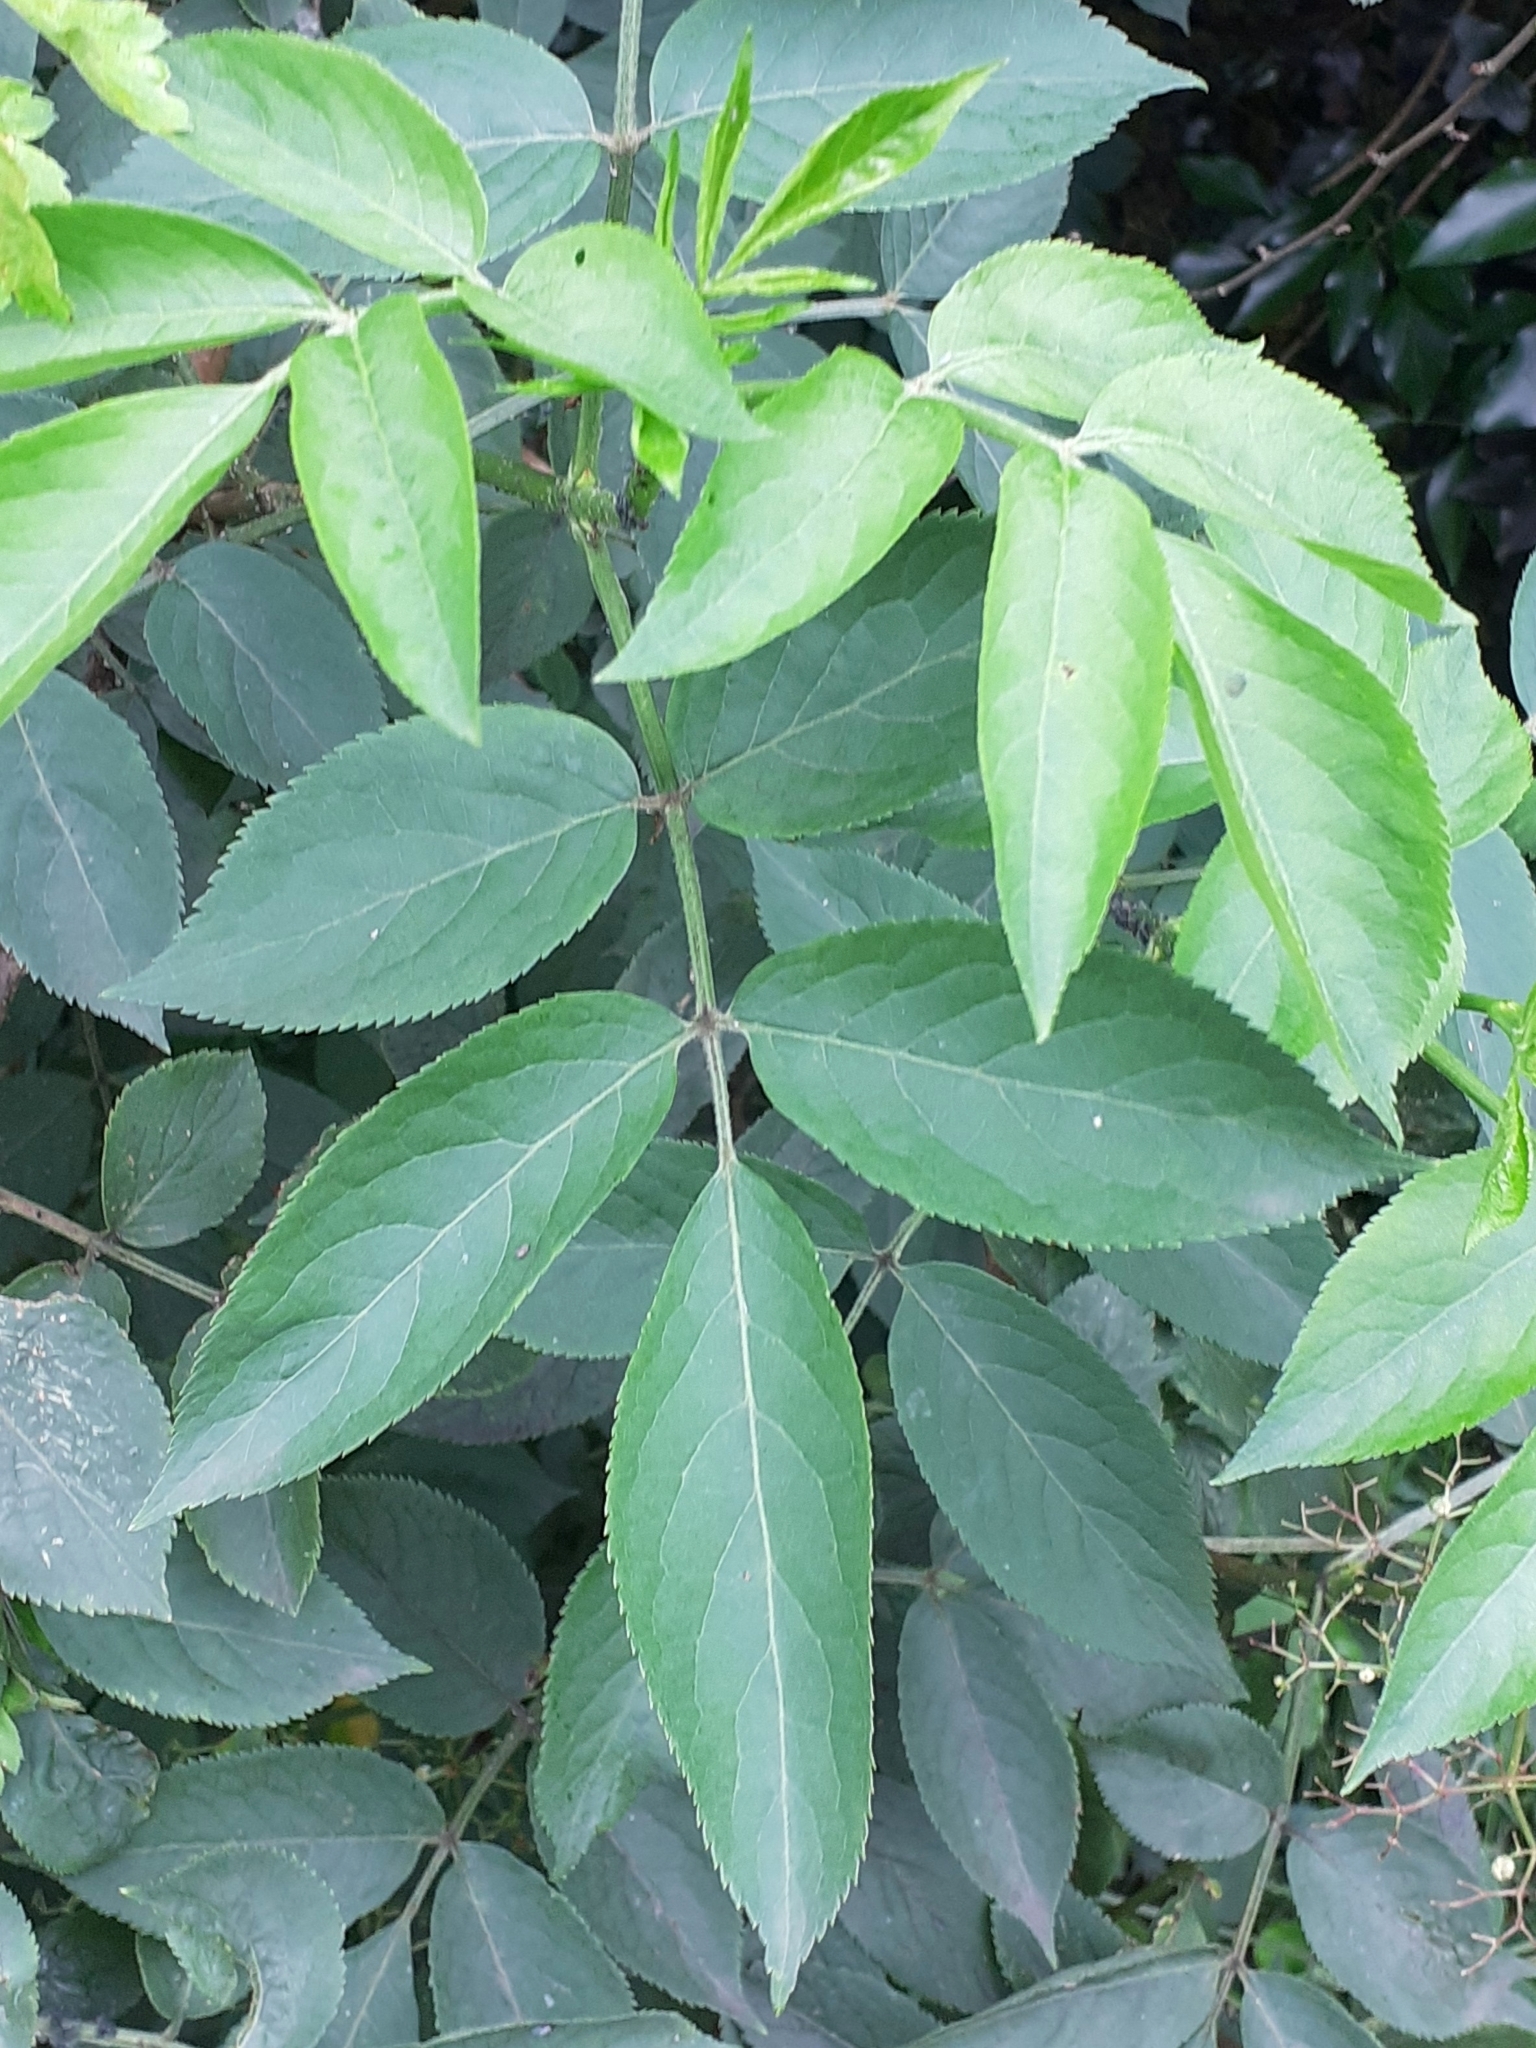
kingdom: Plantae
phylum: Tracheophyta
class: Magnoliopsida
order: Dipsacales
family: Viburnaceae
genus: Sambucus
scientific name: Sambucus nigra
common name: Elder
